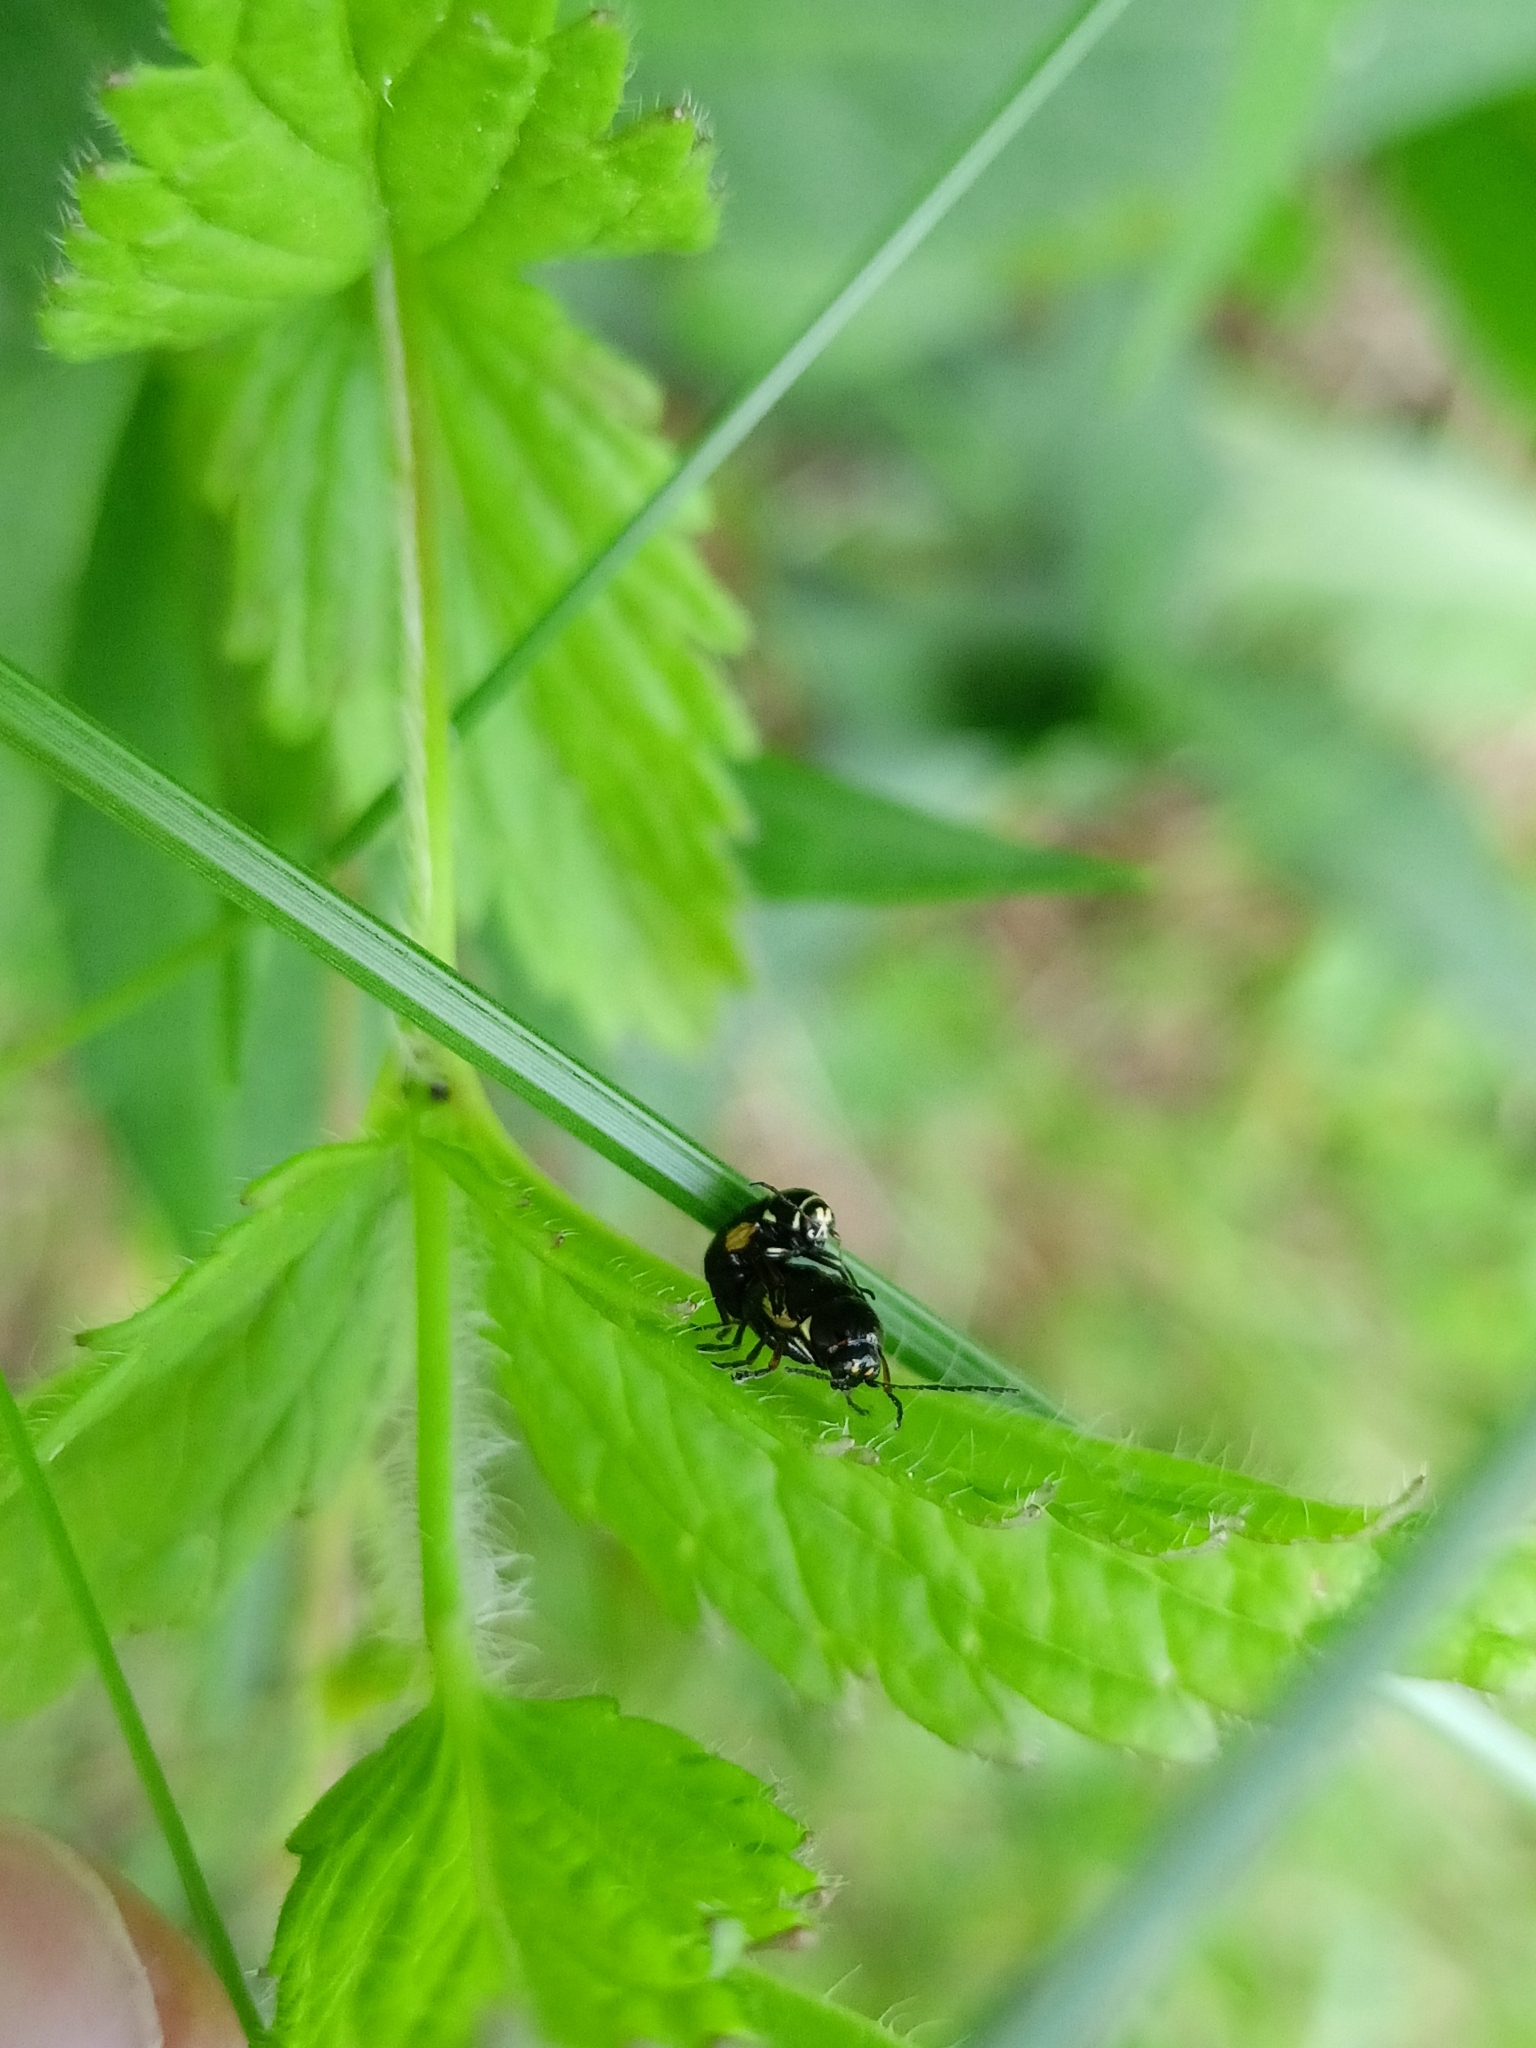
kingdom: Animalia
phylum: Arthropoda
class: Insecta
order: Coleoptera
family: Chrysomelidae
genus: Cryptocephalus
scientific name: Cryptocephalus moraei
